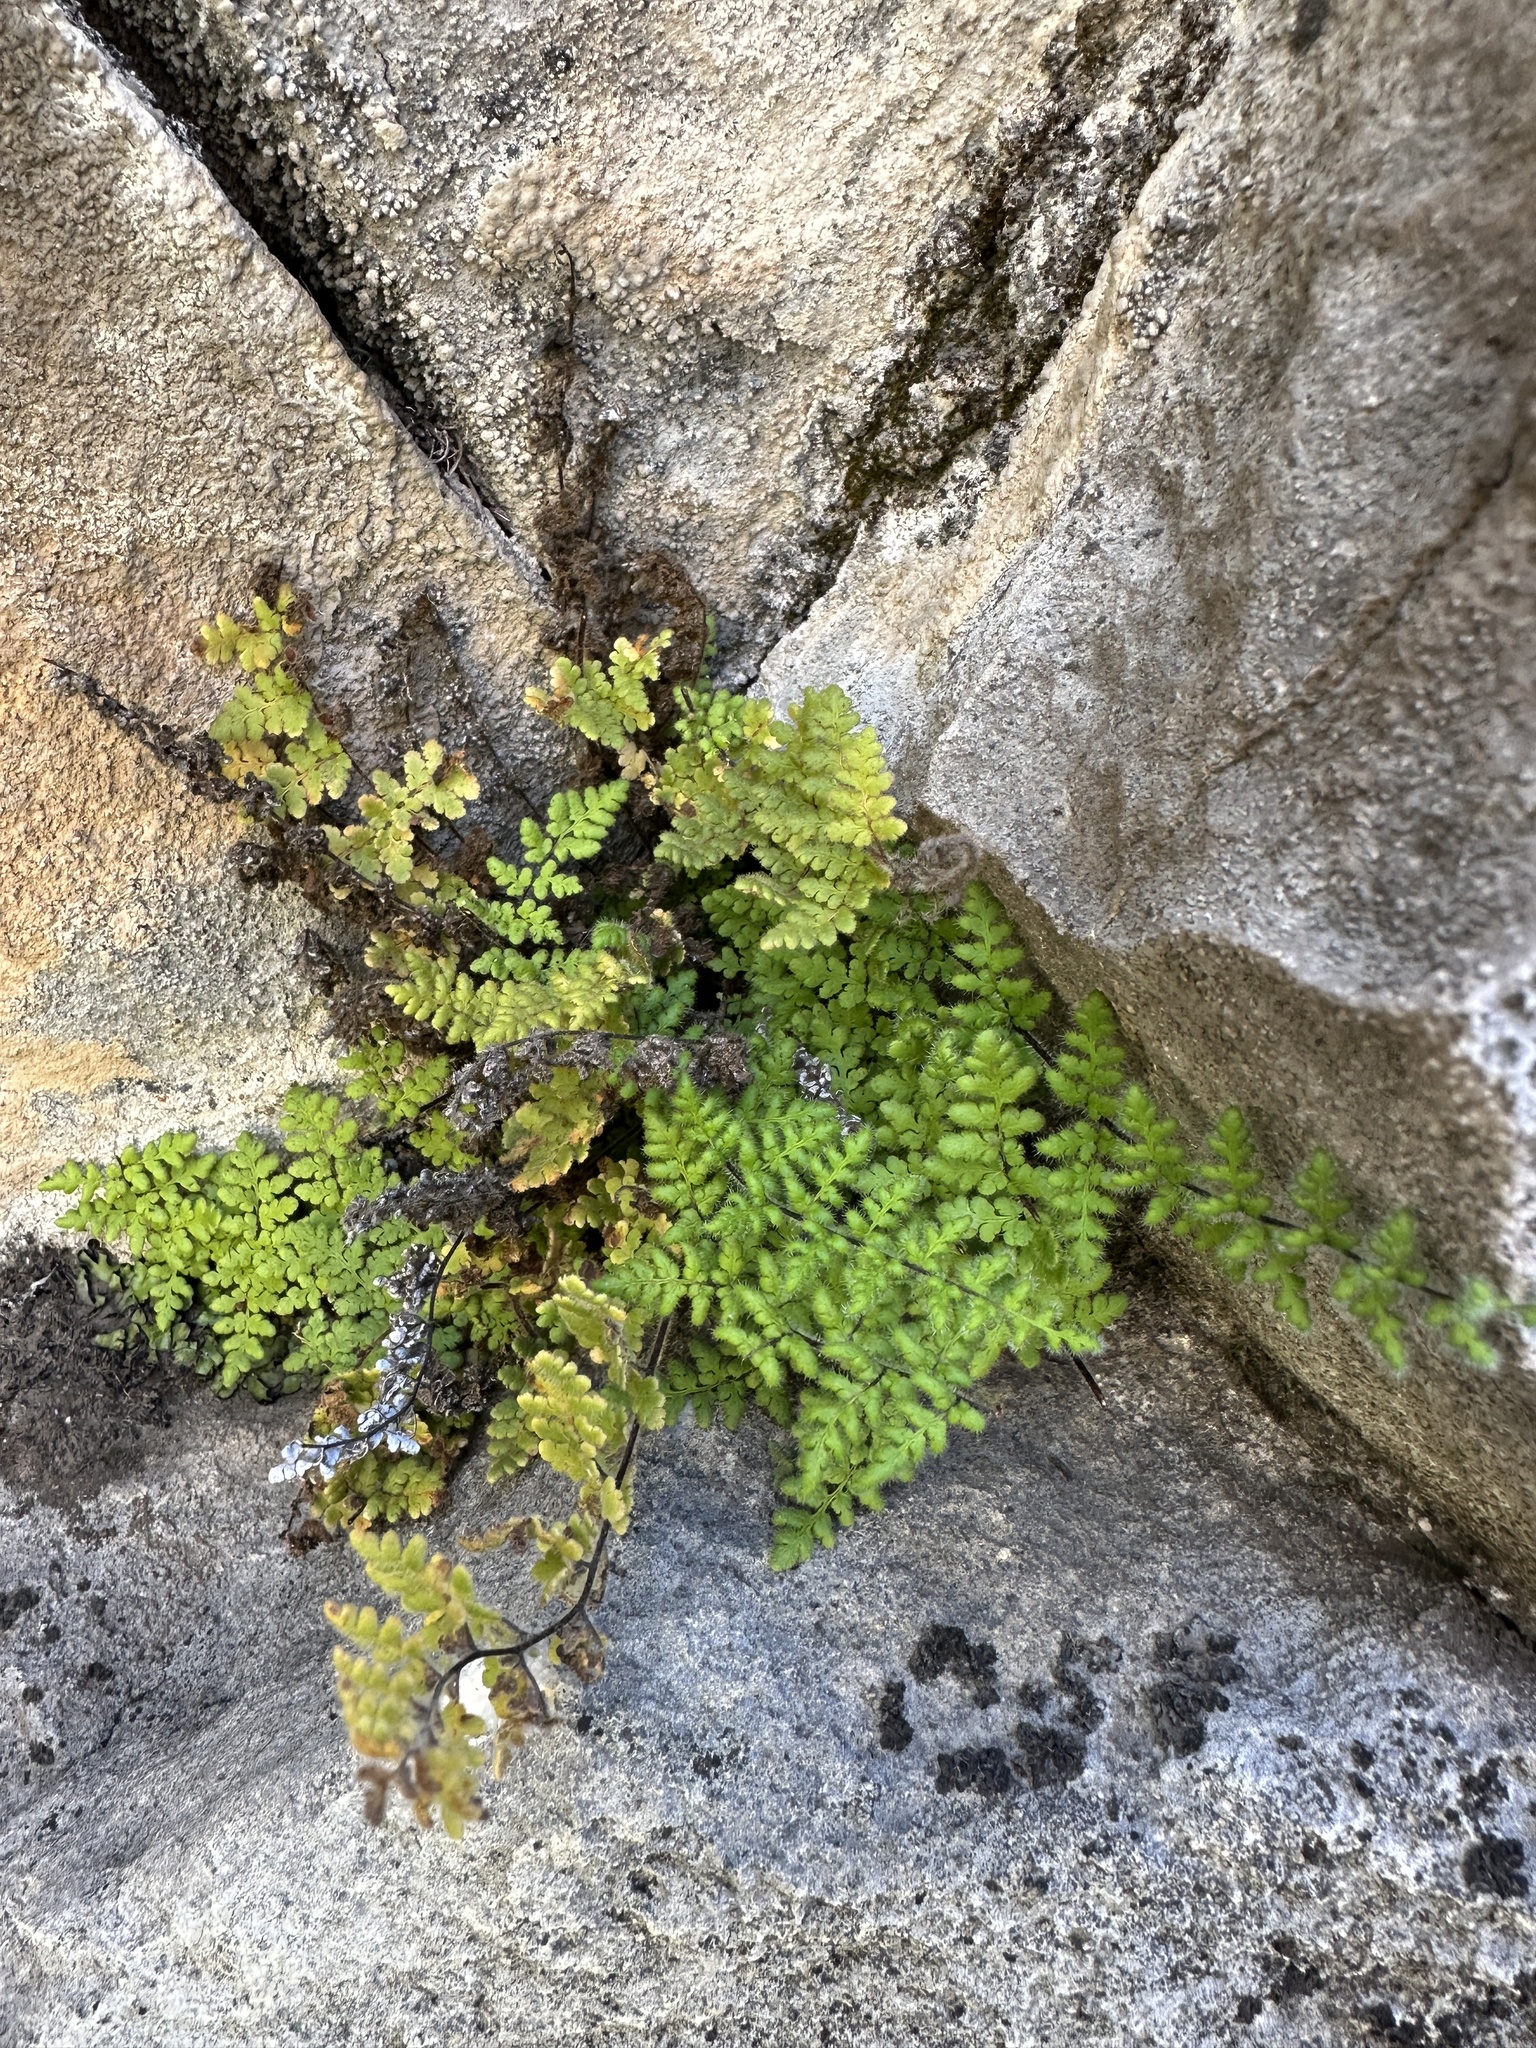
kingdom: Plantae
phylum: Tracheophyta
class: Polypodiopsida
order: Polypodiales
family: Pteridaceae
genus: Myriopteris
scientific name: Myriopteris cooperae
